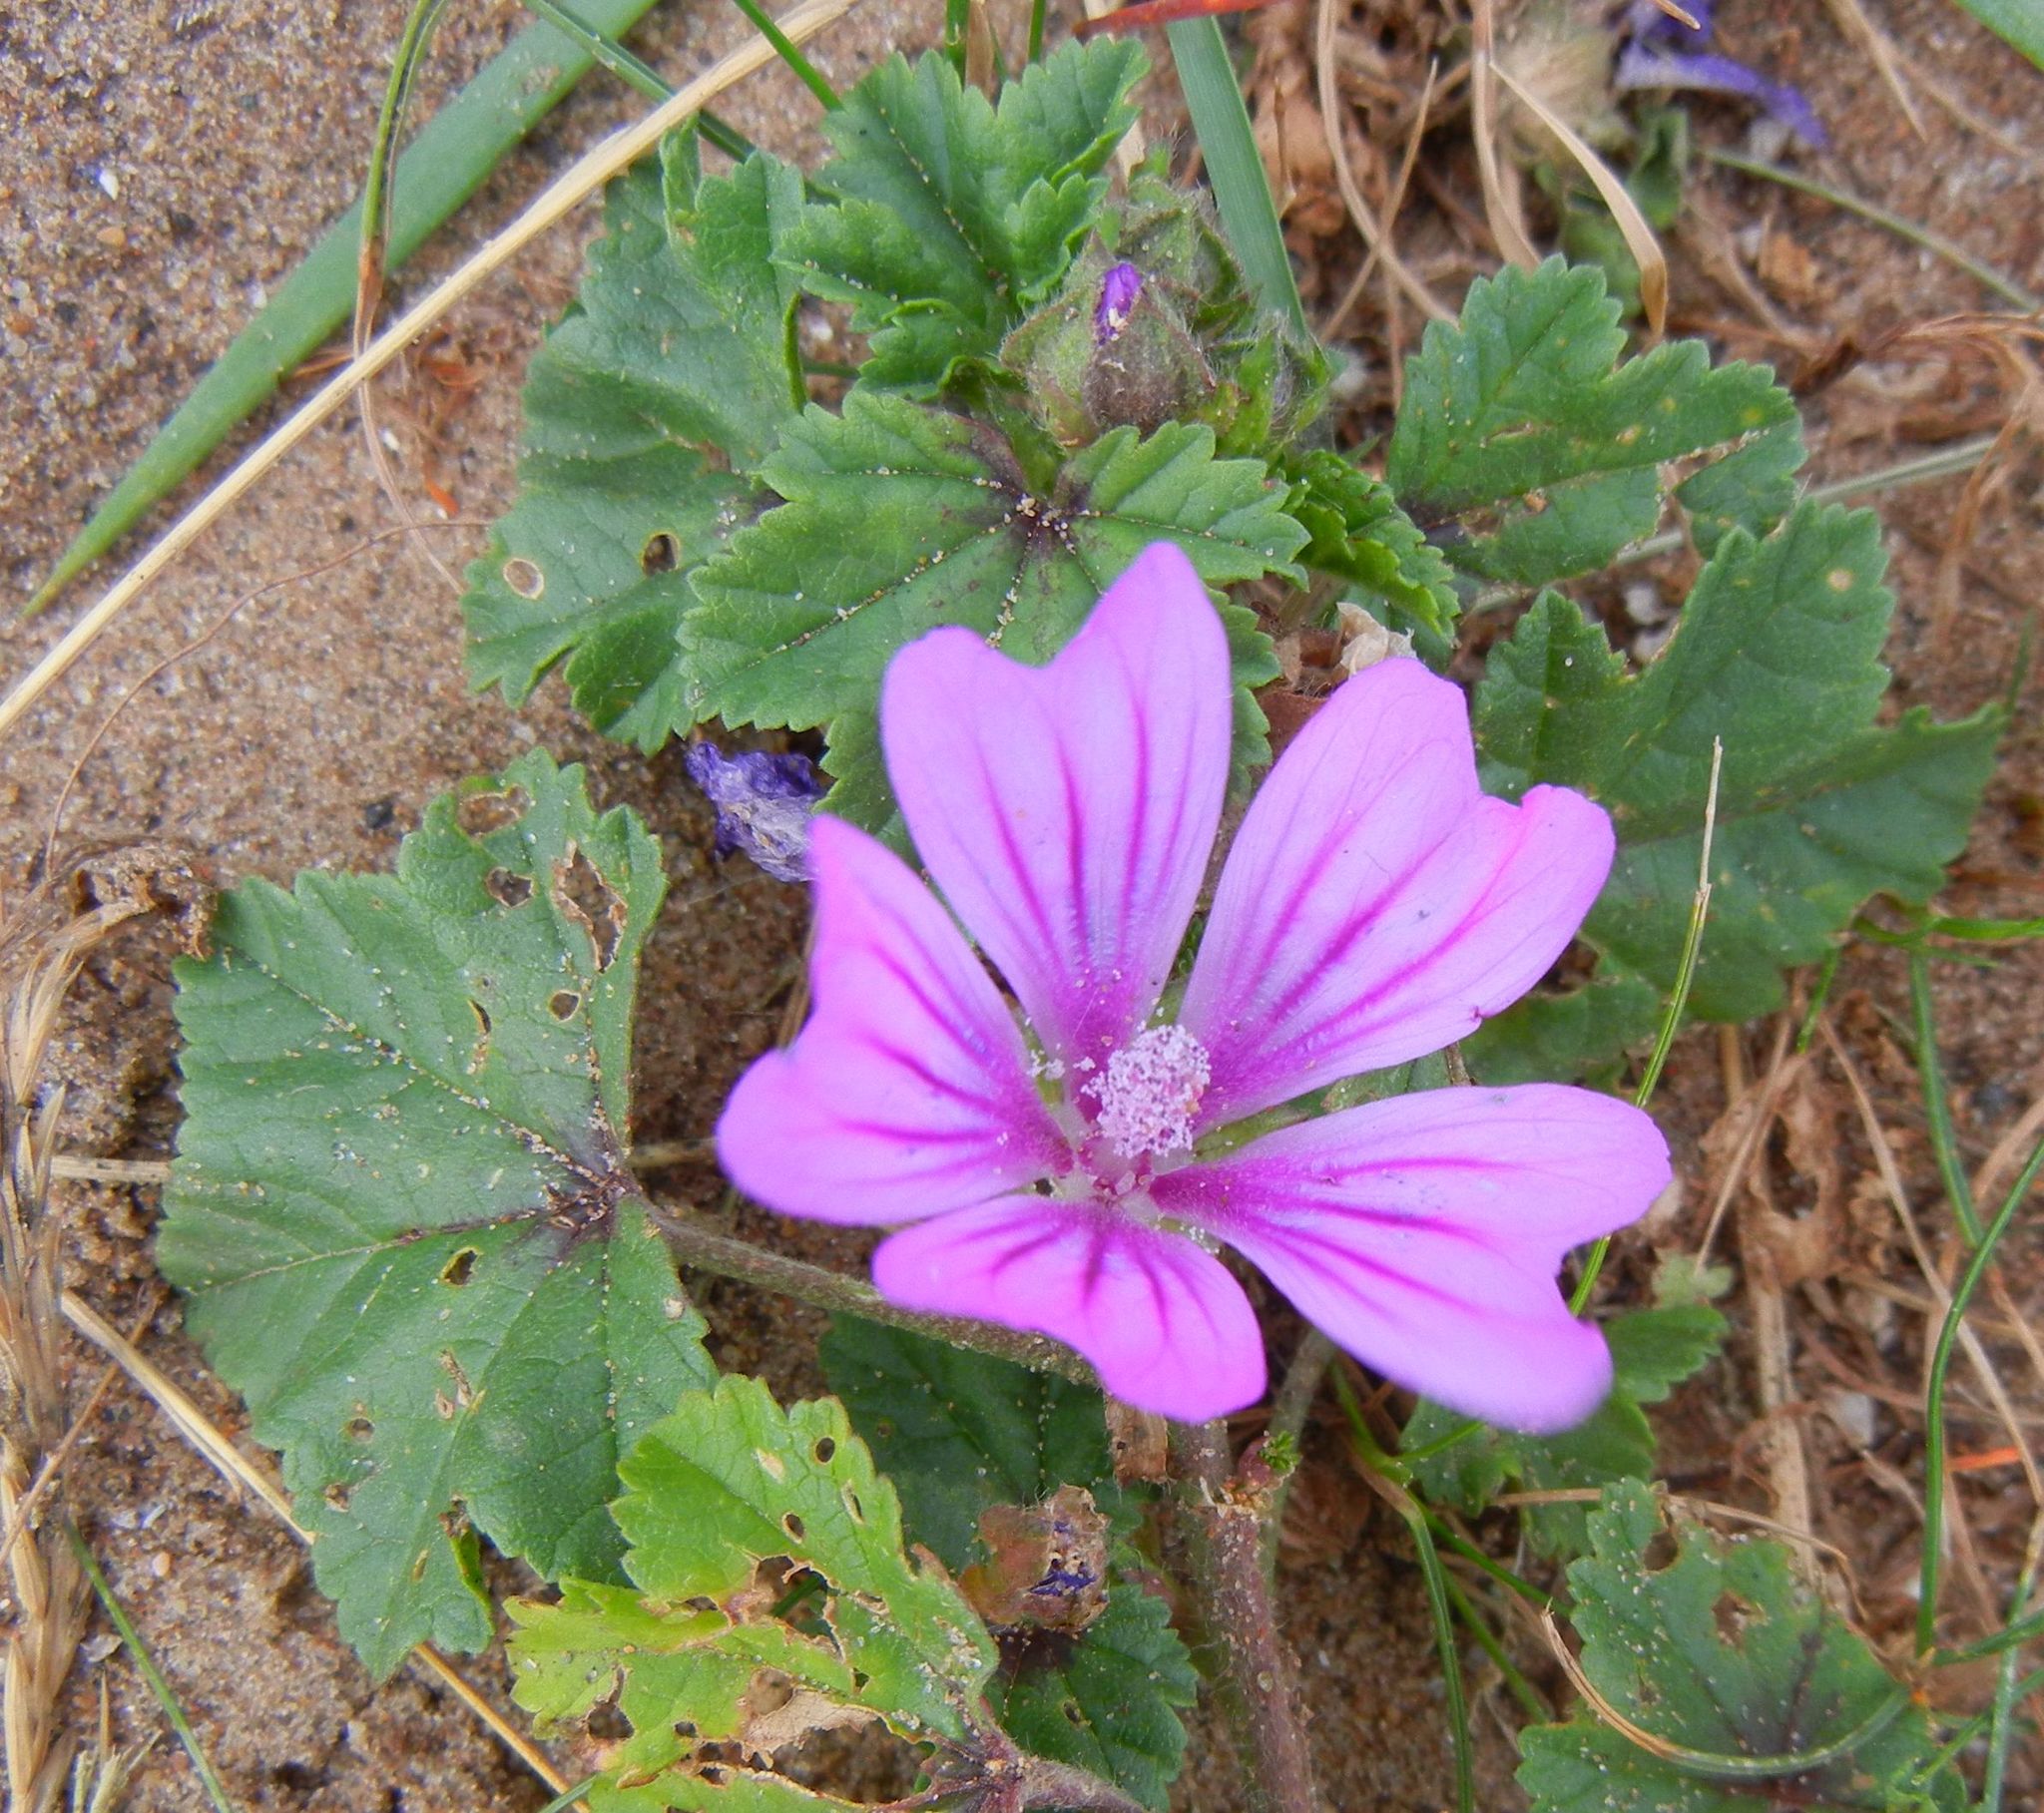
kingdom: Plantae
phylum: Tracheophyta
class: Magnoliopsida
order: Malvales
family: Malvaceae
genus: Malva
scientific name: Malva sylvestris
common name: Common mallow
